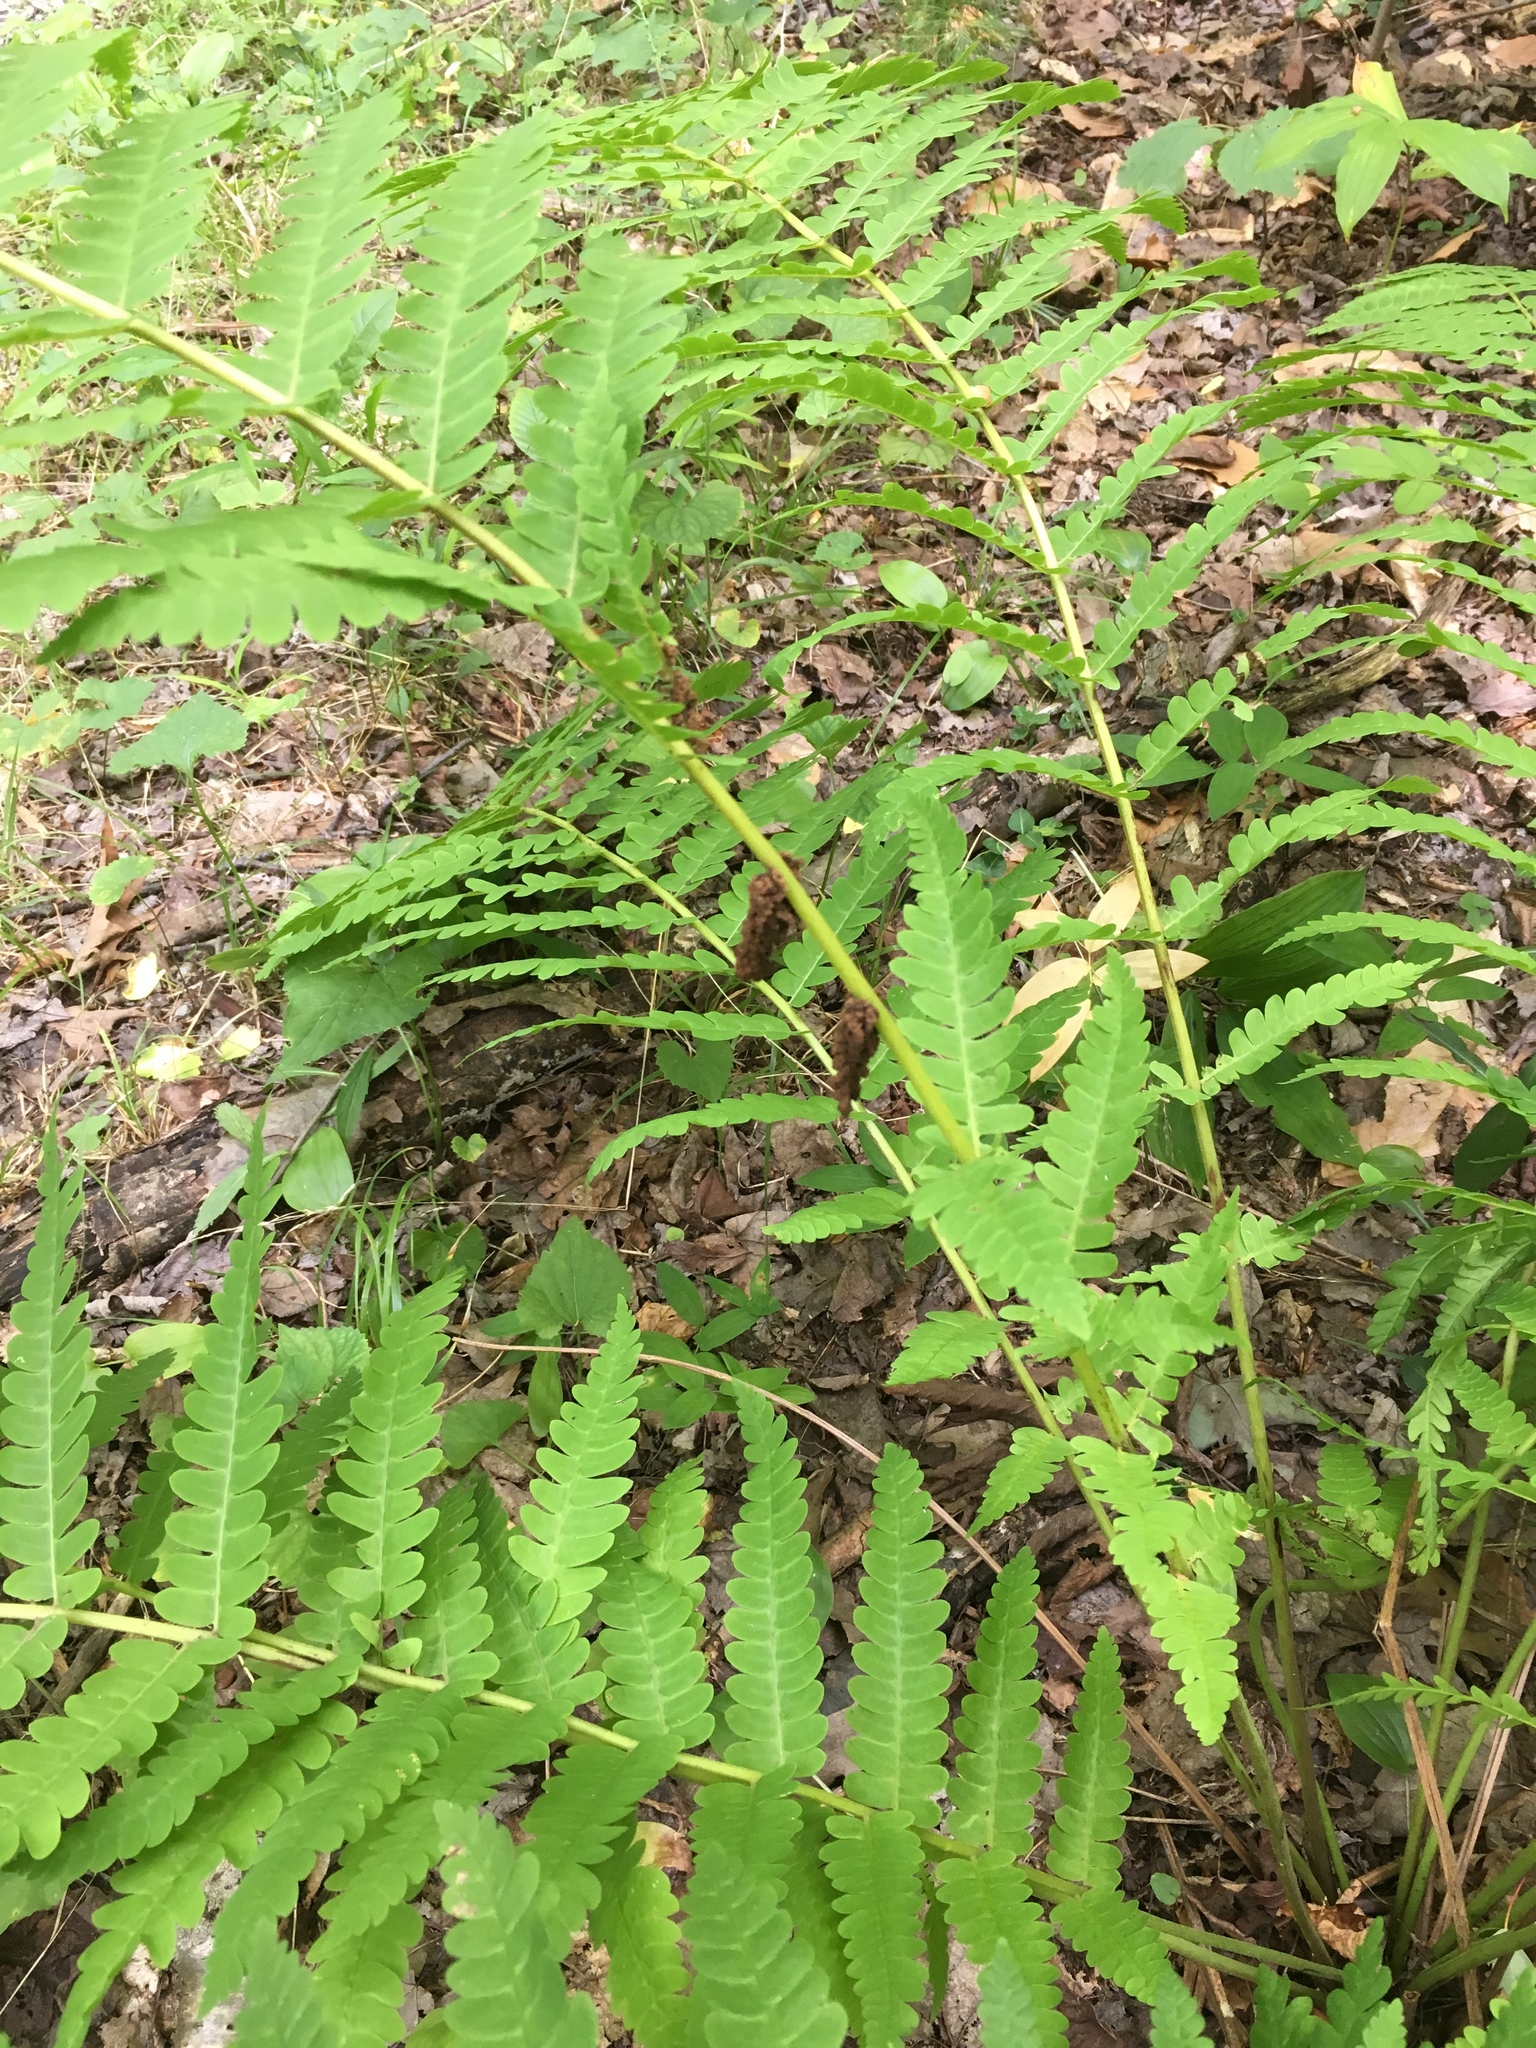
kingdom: Plantae
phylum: Tracheophyta
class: Polypodiopsida
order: Osmundales
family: Osmundaceae
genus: Claytosmunda
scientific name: Claytosmunda claytoniana
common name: Clayton's fern
